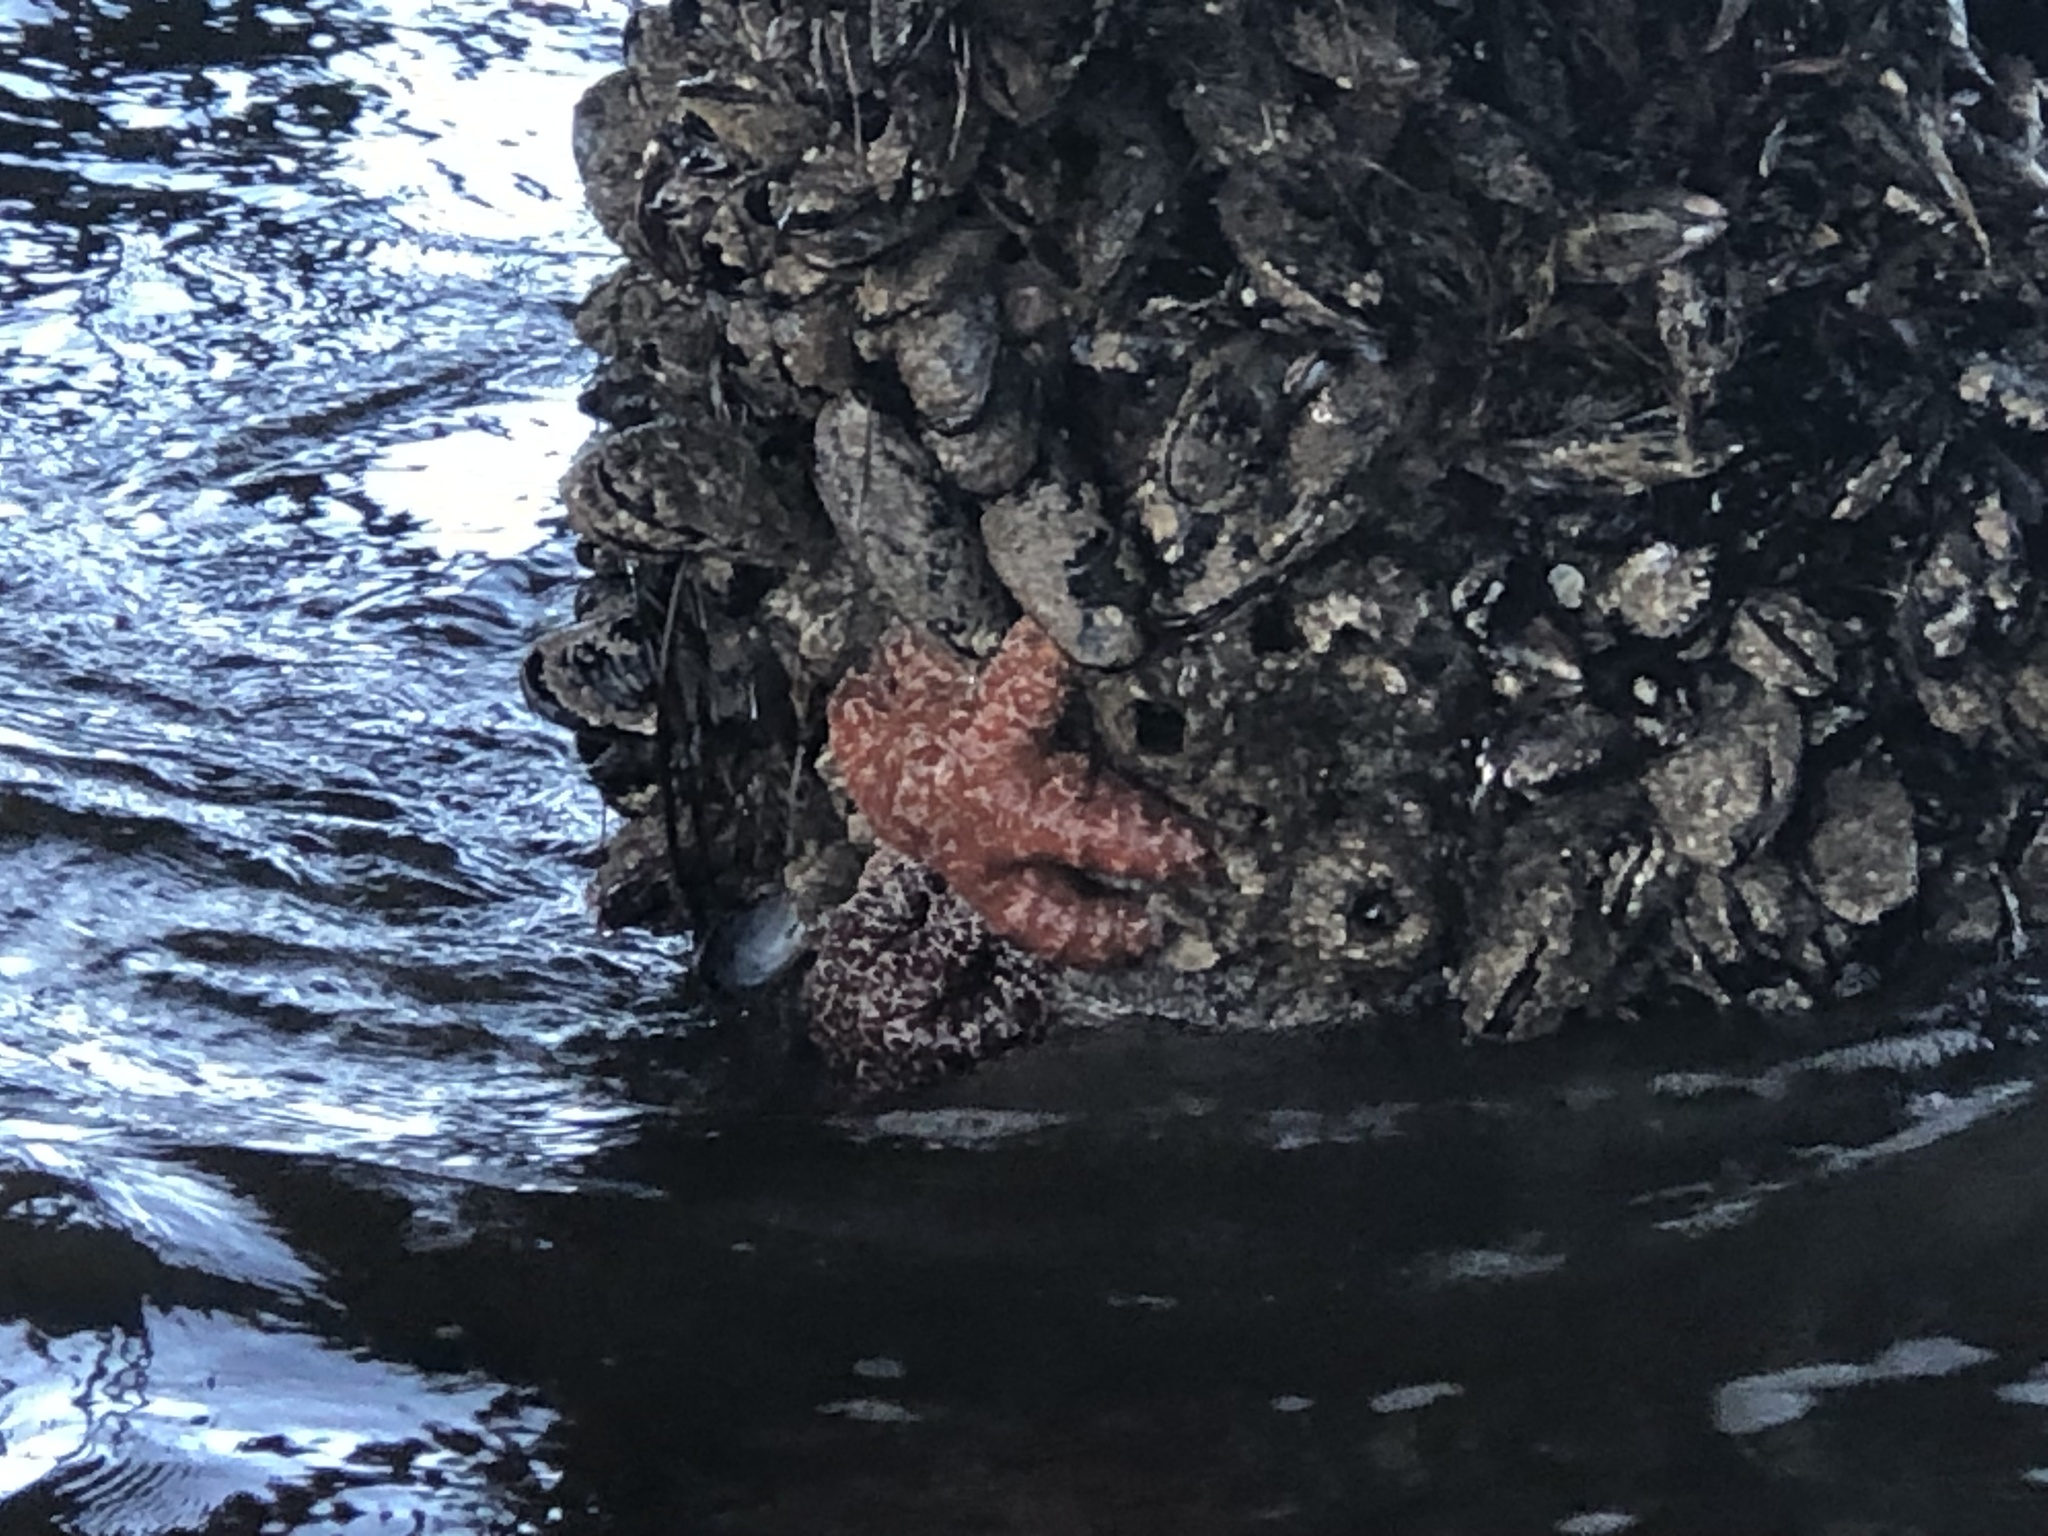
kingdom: Animalia
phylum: Echinodermata
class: Asteroidea
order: Forcipulatida
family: Asteriidae
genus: Pisaster
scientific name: Pisaster ochraceus
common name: Ochre stars
